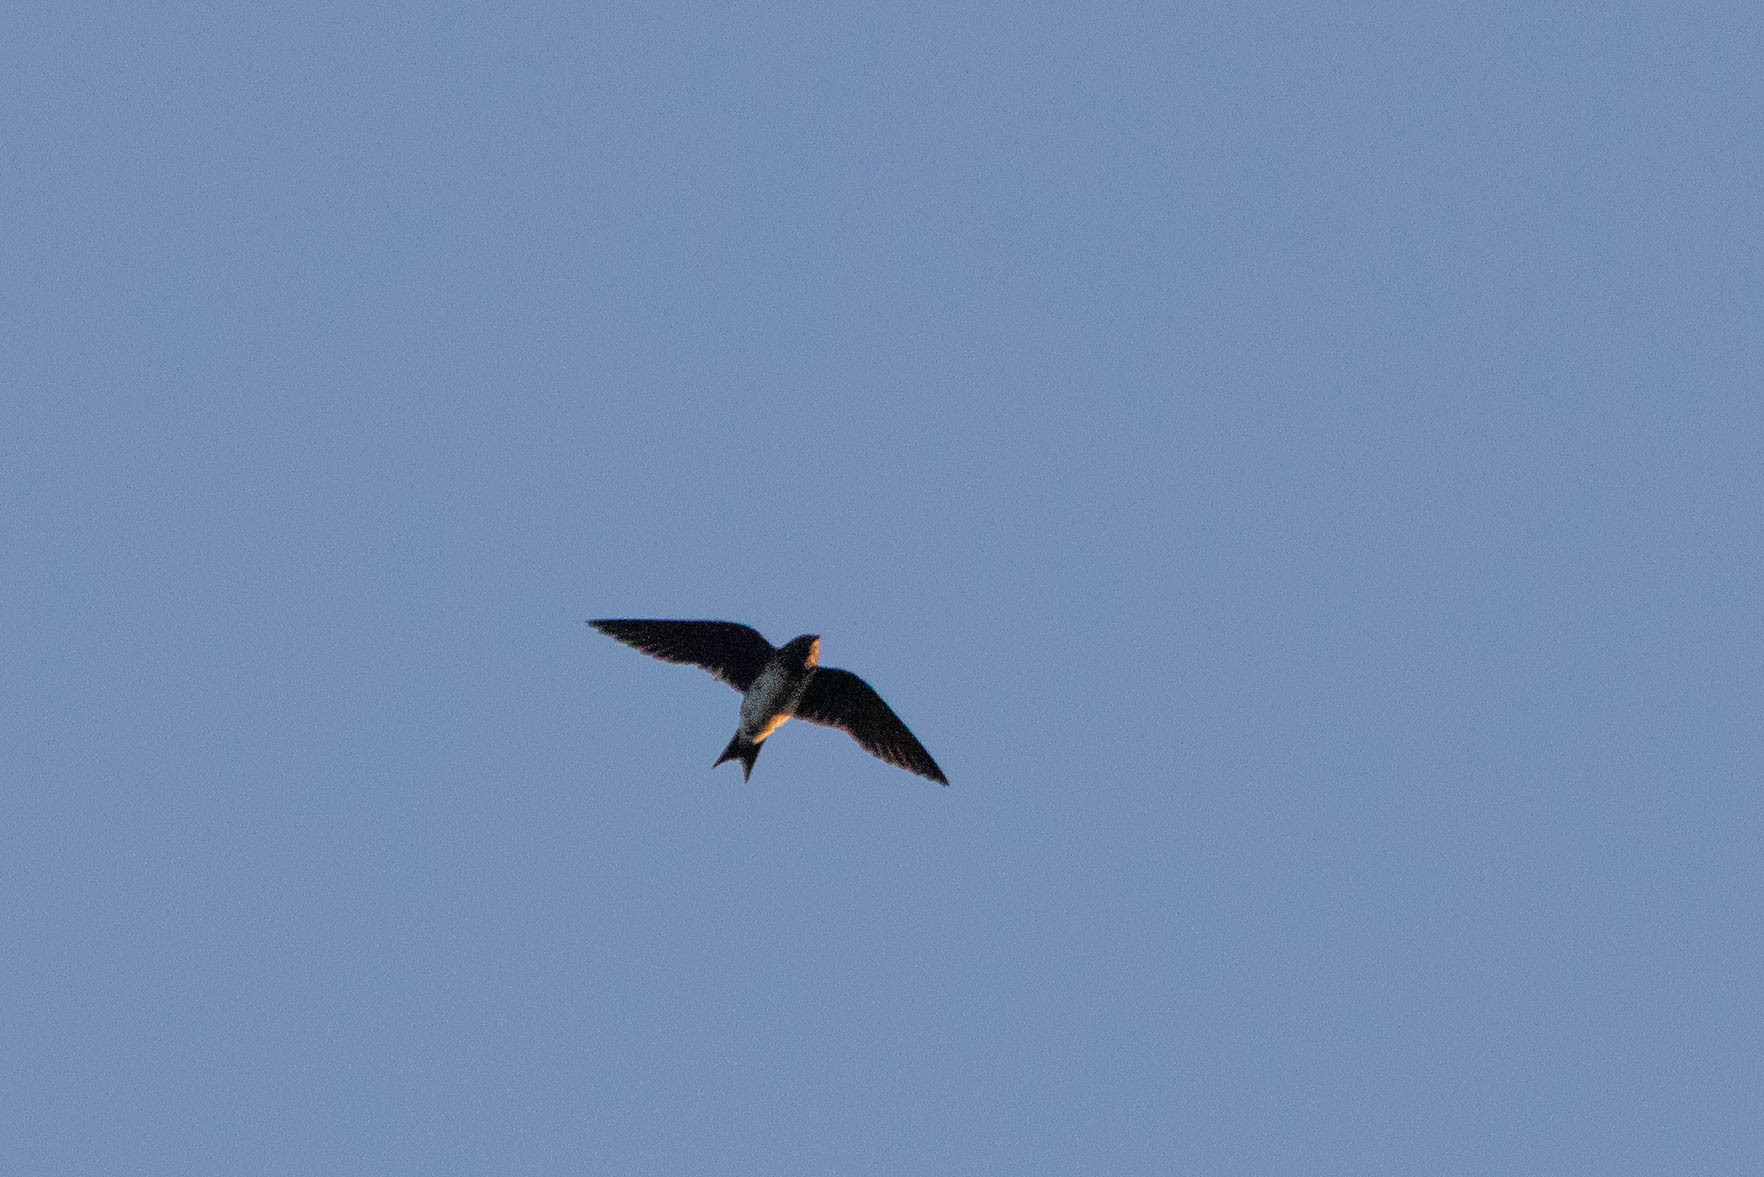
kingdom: Animalia
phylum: Chordata
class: Aves
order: Passeriformes
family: Hirundinidae
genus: Hirundo
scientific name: Hirundo rustica
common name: Barn swallow
